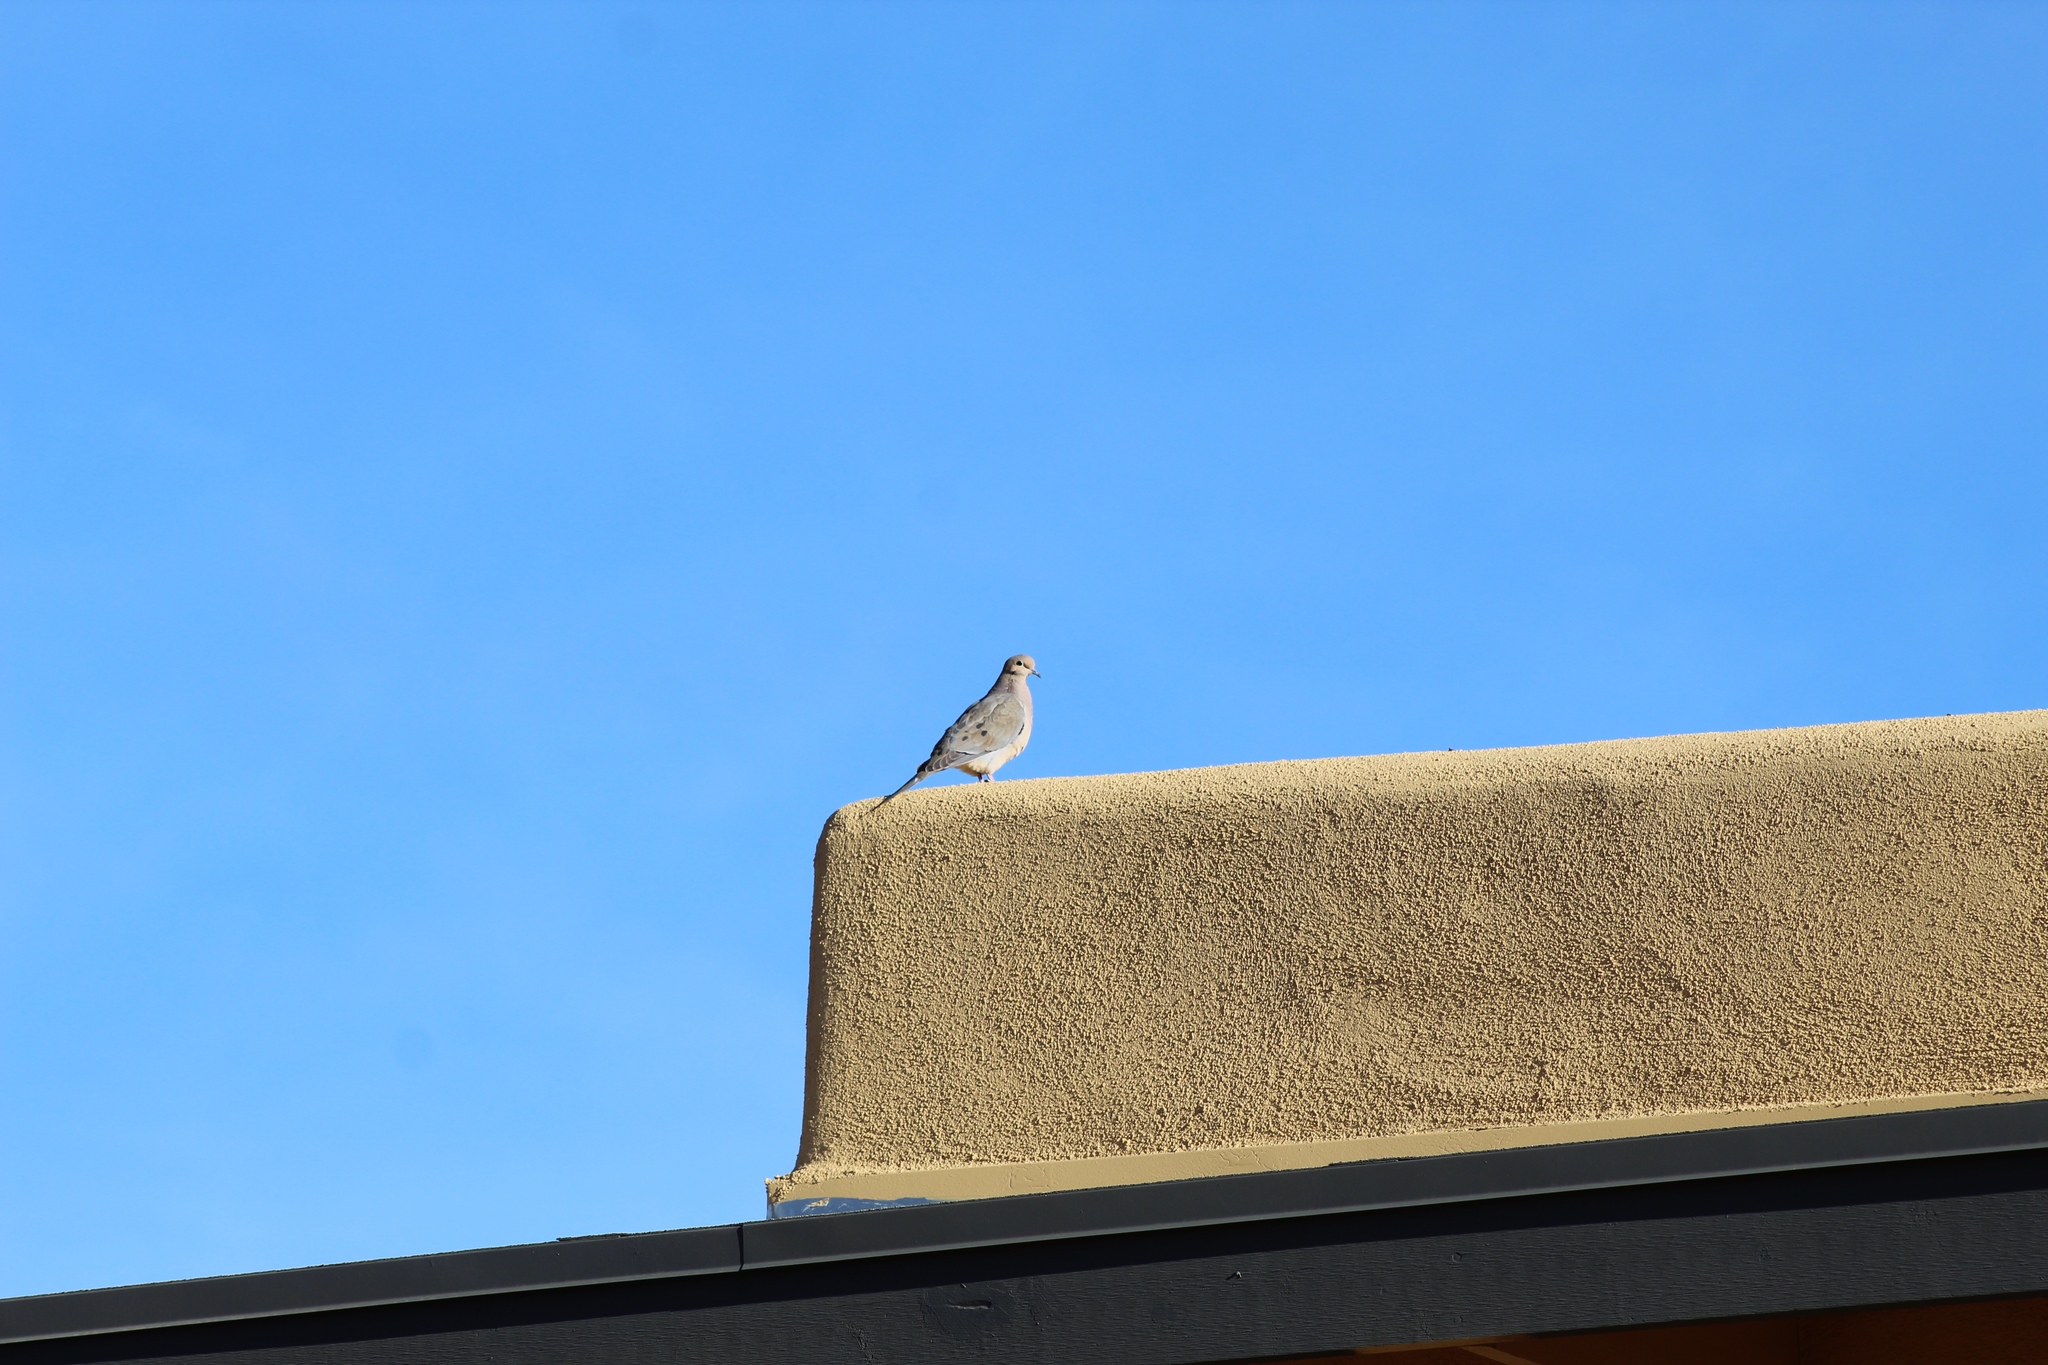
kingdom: Animalia
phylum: Chordata
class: Aves
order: Columbiformes
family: Columbidae
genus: Zenaida
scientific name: Zenaida macroura
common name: Mourning dove
